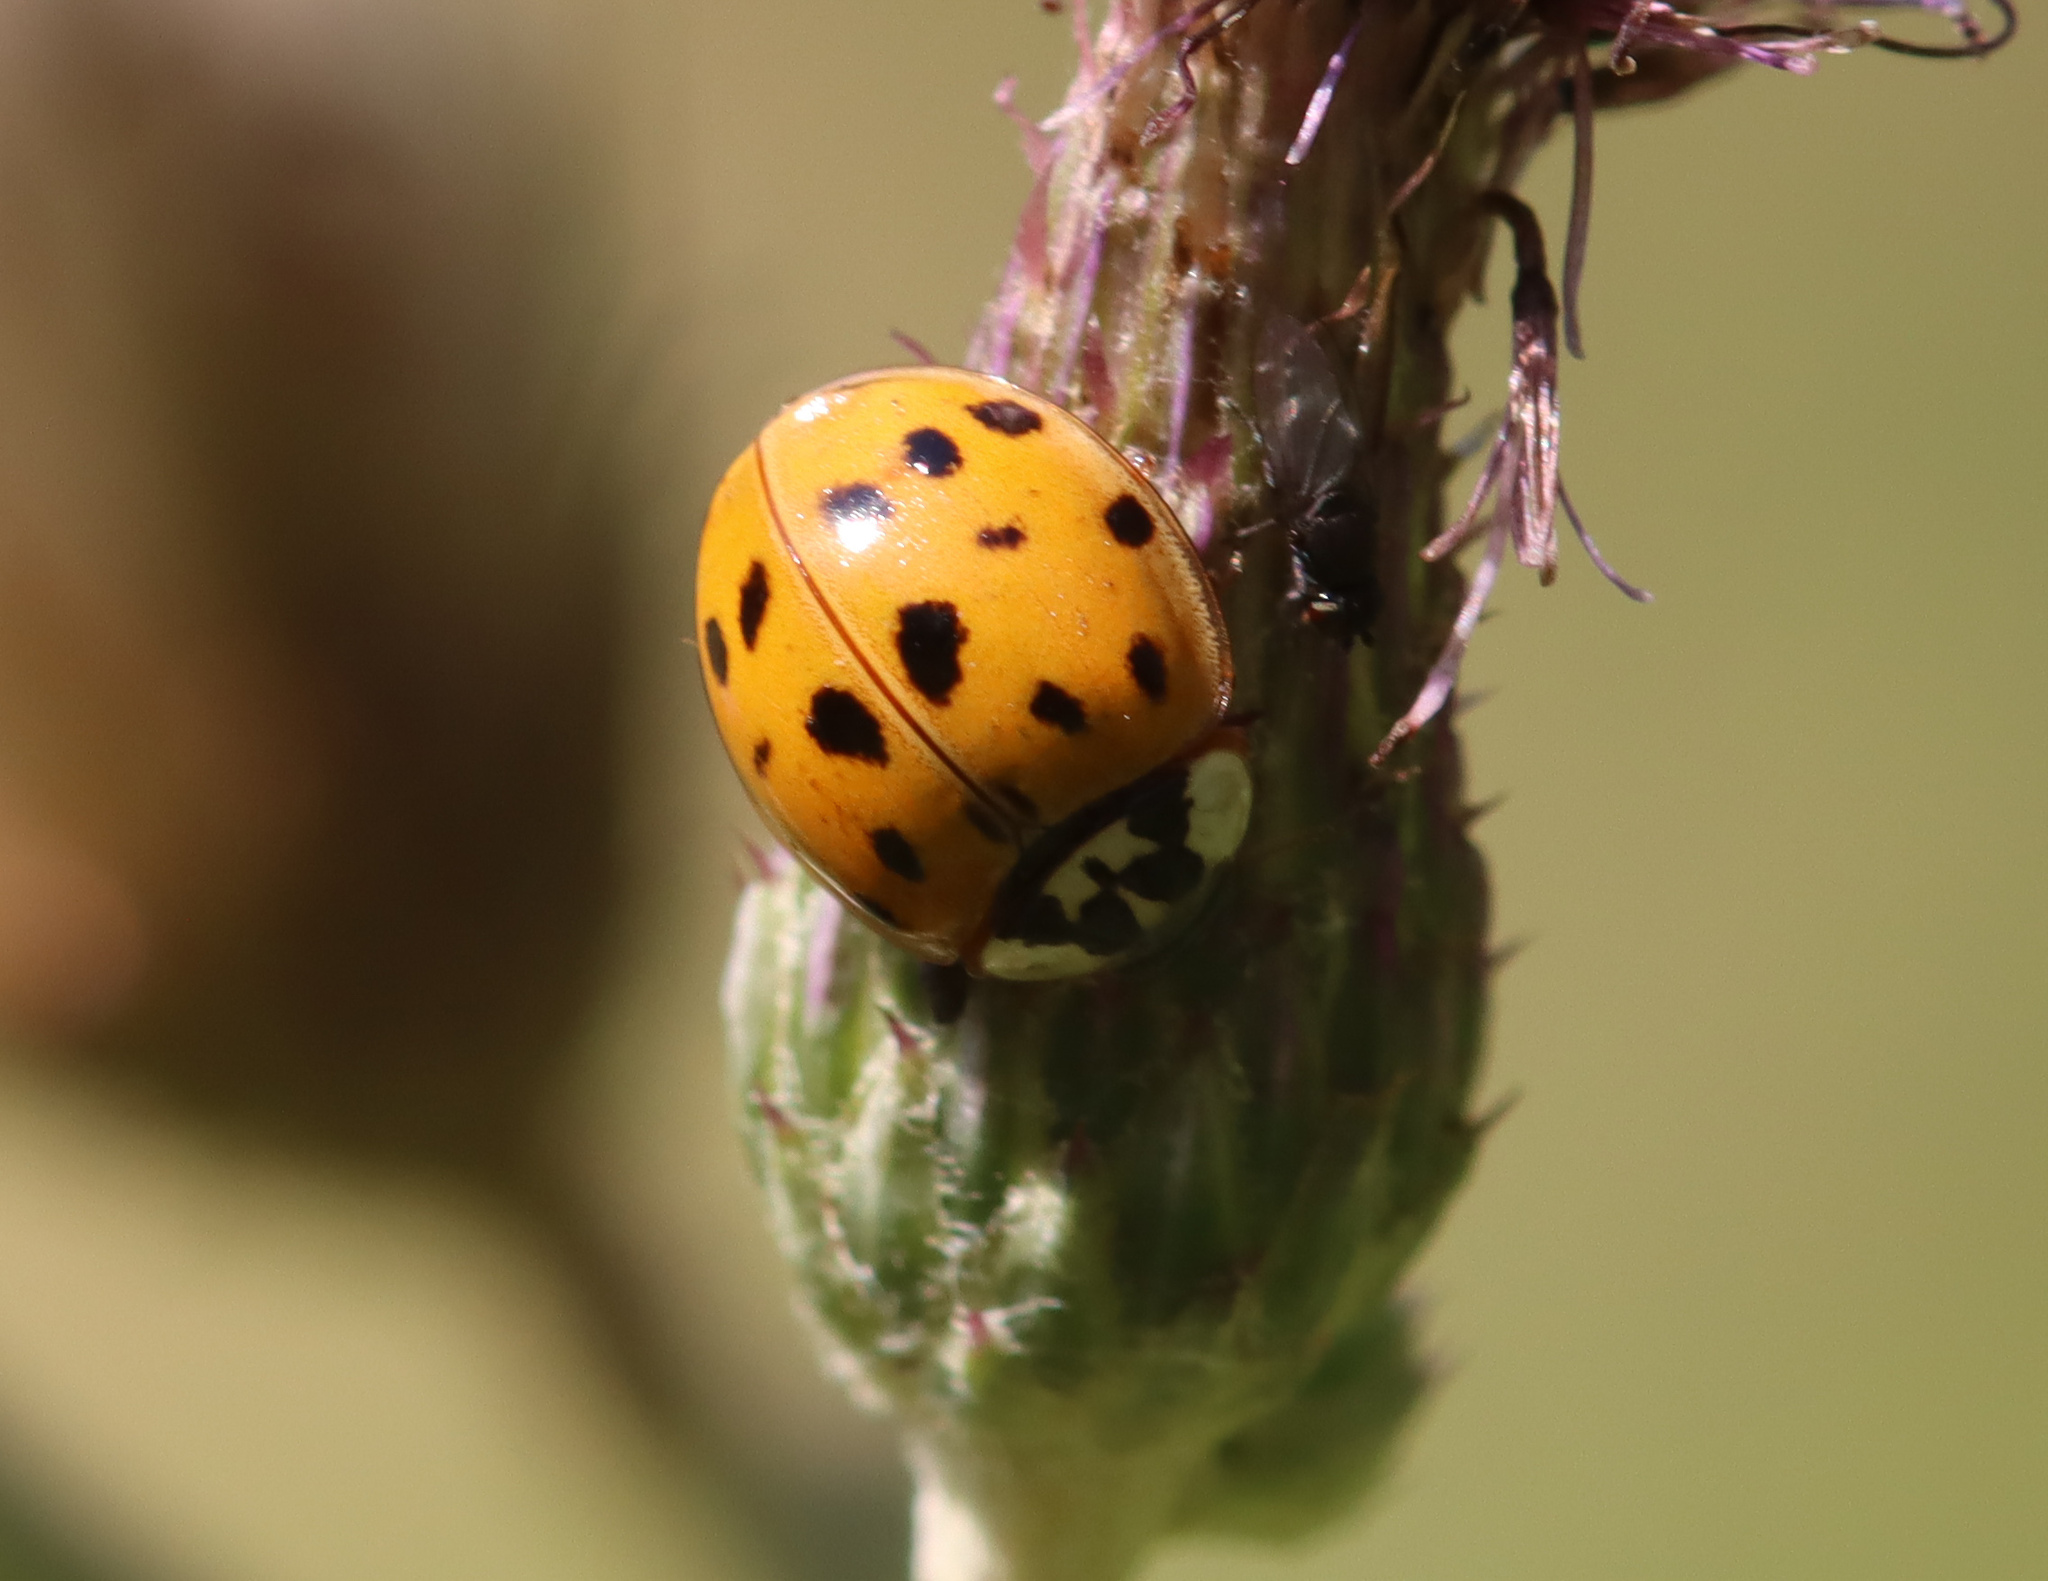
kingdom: Animalia
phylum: Arthropoda
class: Insecta
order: Coleoptera
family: Coccinellidae
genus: Harmonia
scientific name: Harmonia axyridis
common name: Harlequin ladybird
